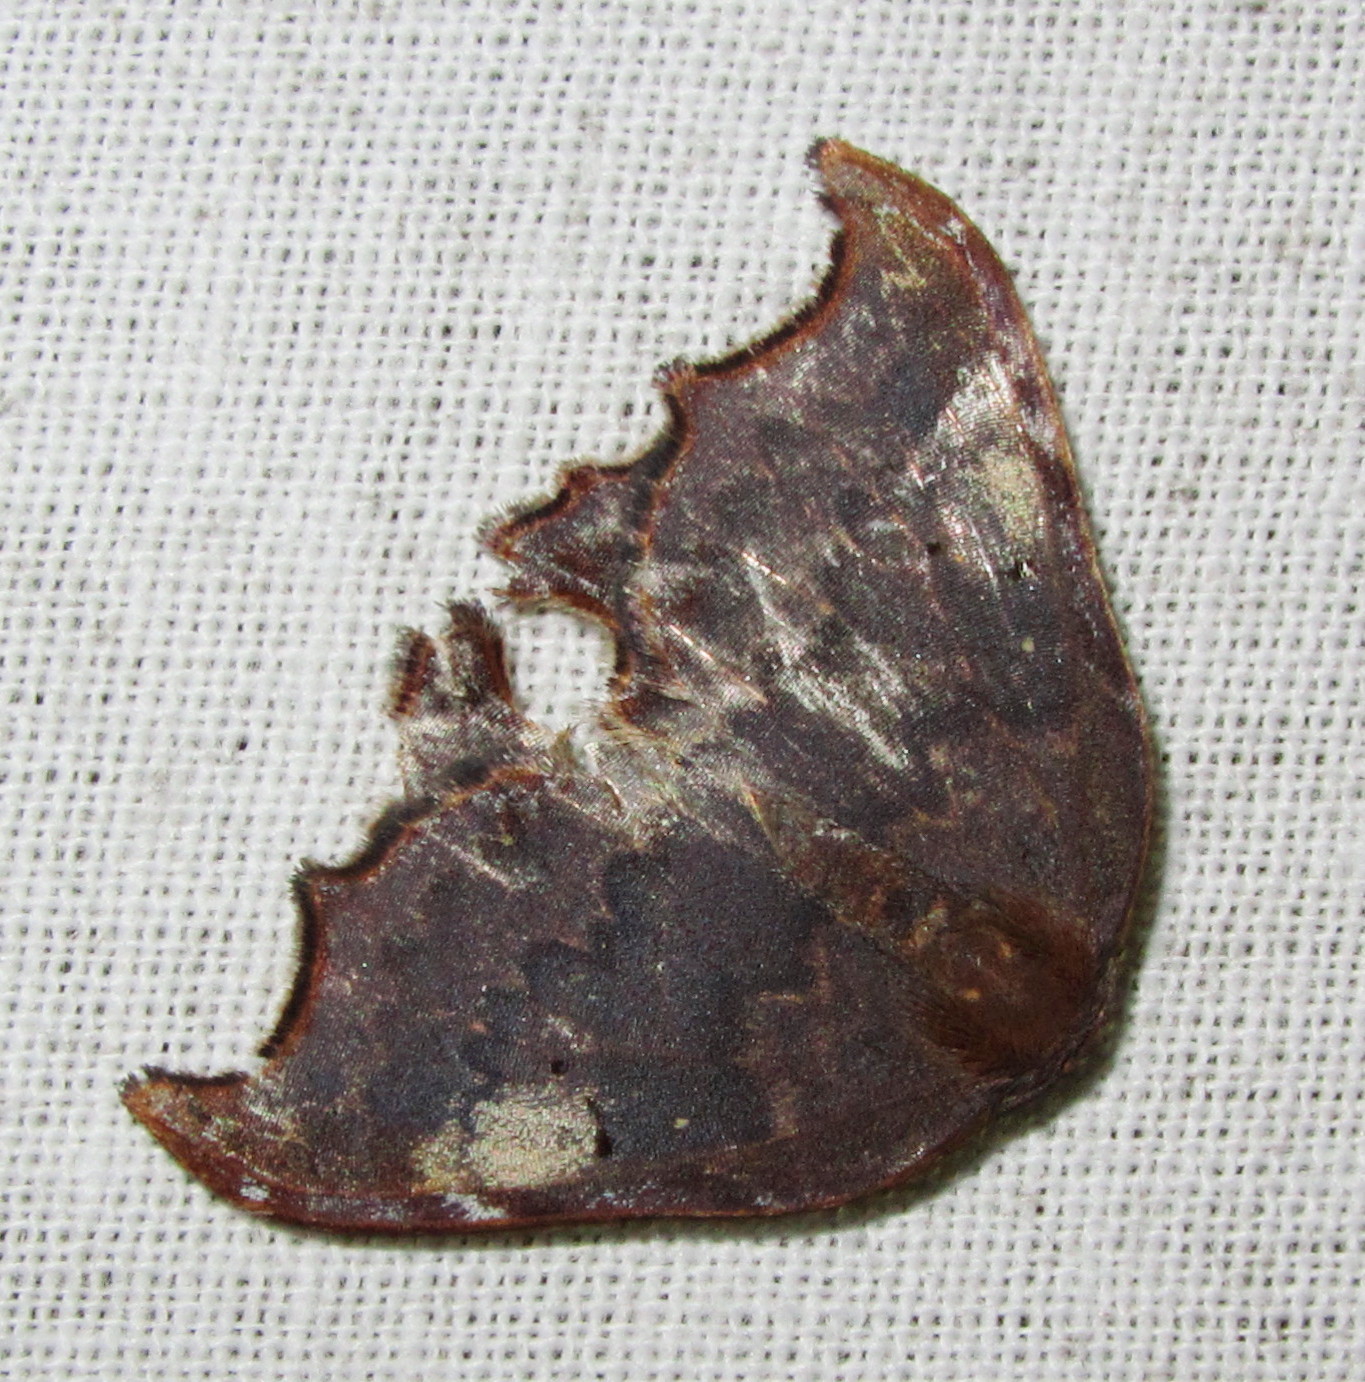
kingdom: Animalia
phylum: Arthropoda
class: Insecta
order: Lepidoptera
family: Drepanidae
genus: Thymistada
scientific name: Thymistada tripunctata
